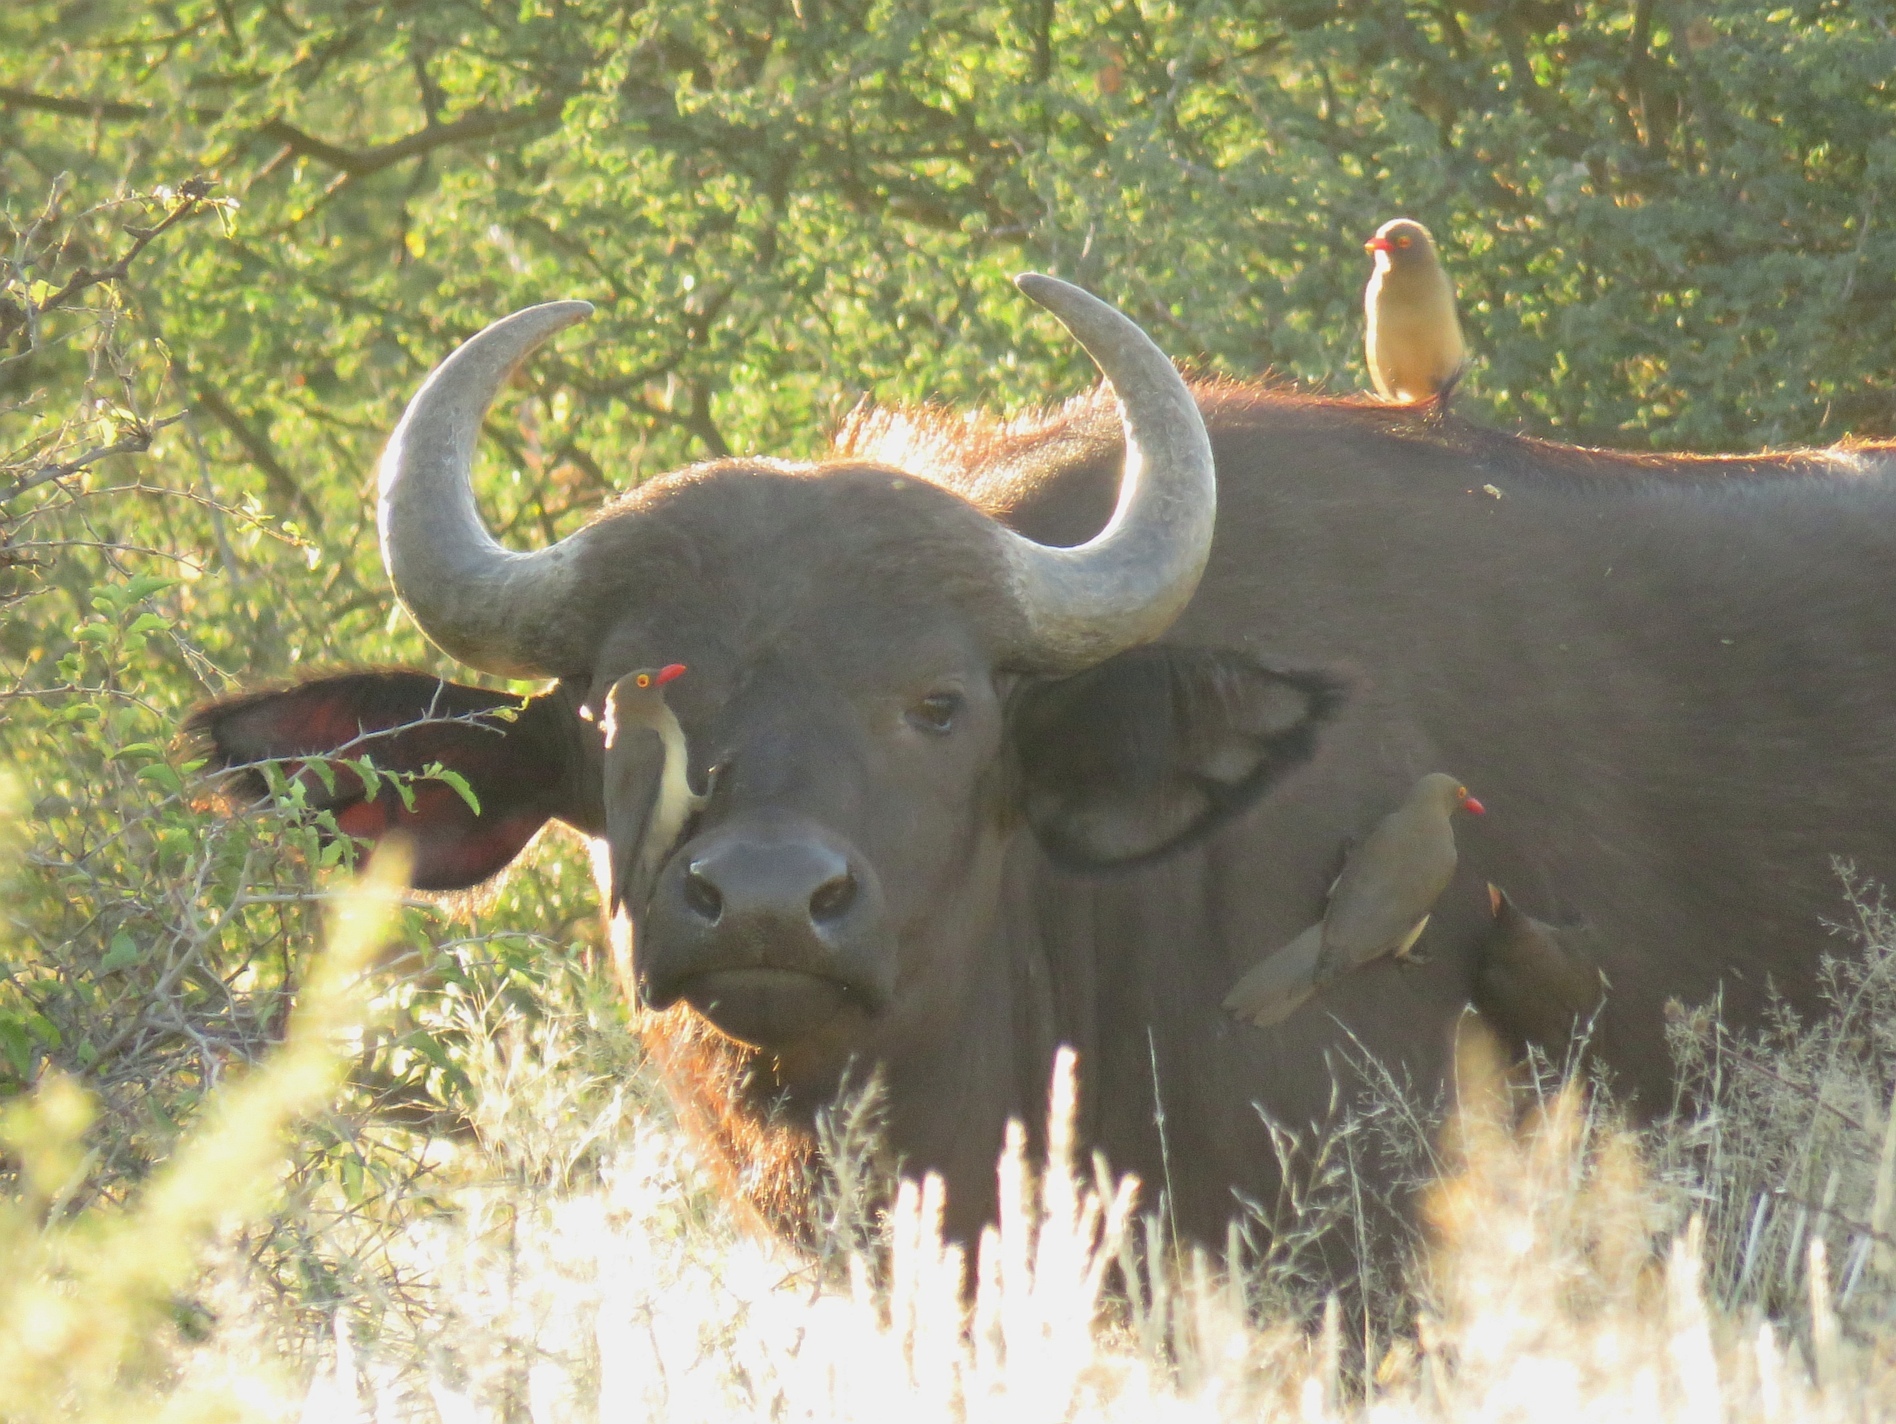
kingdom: Animalia
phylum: Chordata
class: Aves
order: Passeriformes
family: Buphagidae
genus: Buphagus
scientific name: Buphagus erythrorhynchus
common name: Red-billed oxpecker
